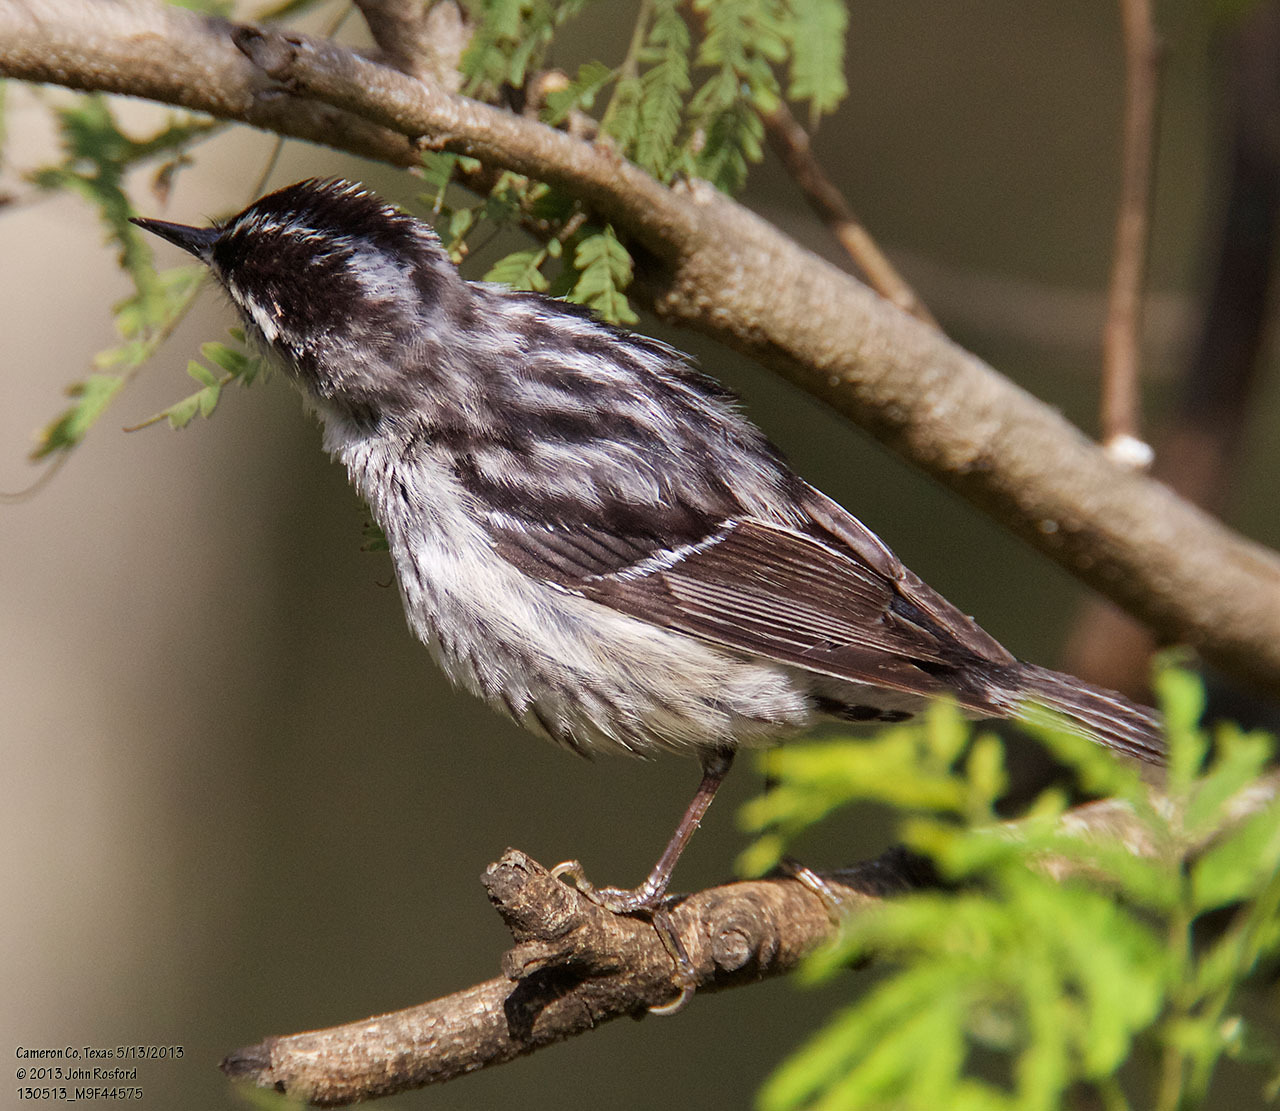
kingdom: Animalia
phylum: Chordata
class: Aves
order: Passeriformes
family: Parulidae
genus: Mniotilta
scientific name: Mniotilta varia
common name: Black-and-white warbler
